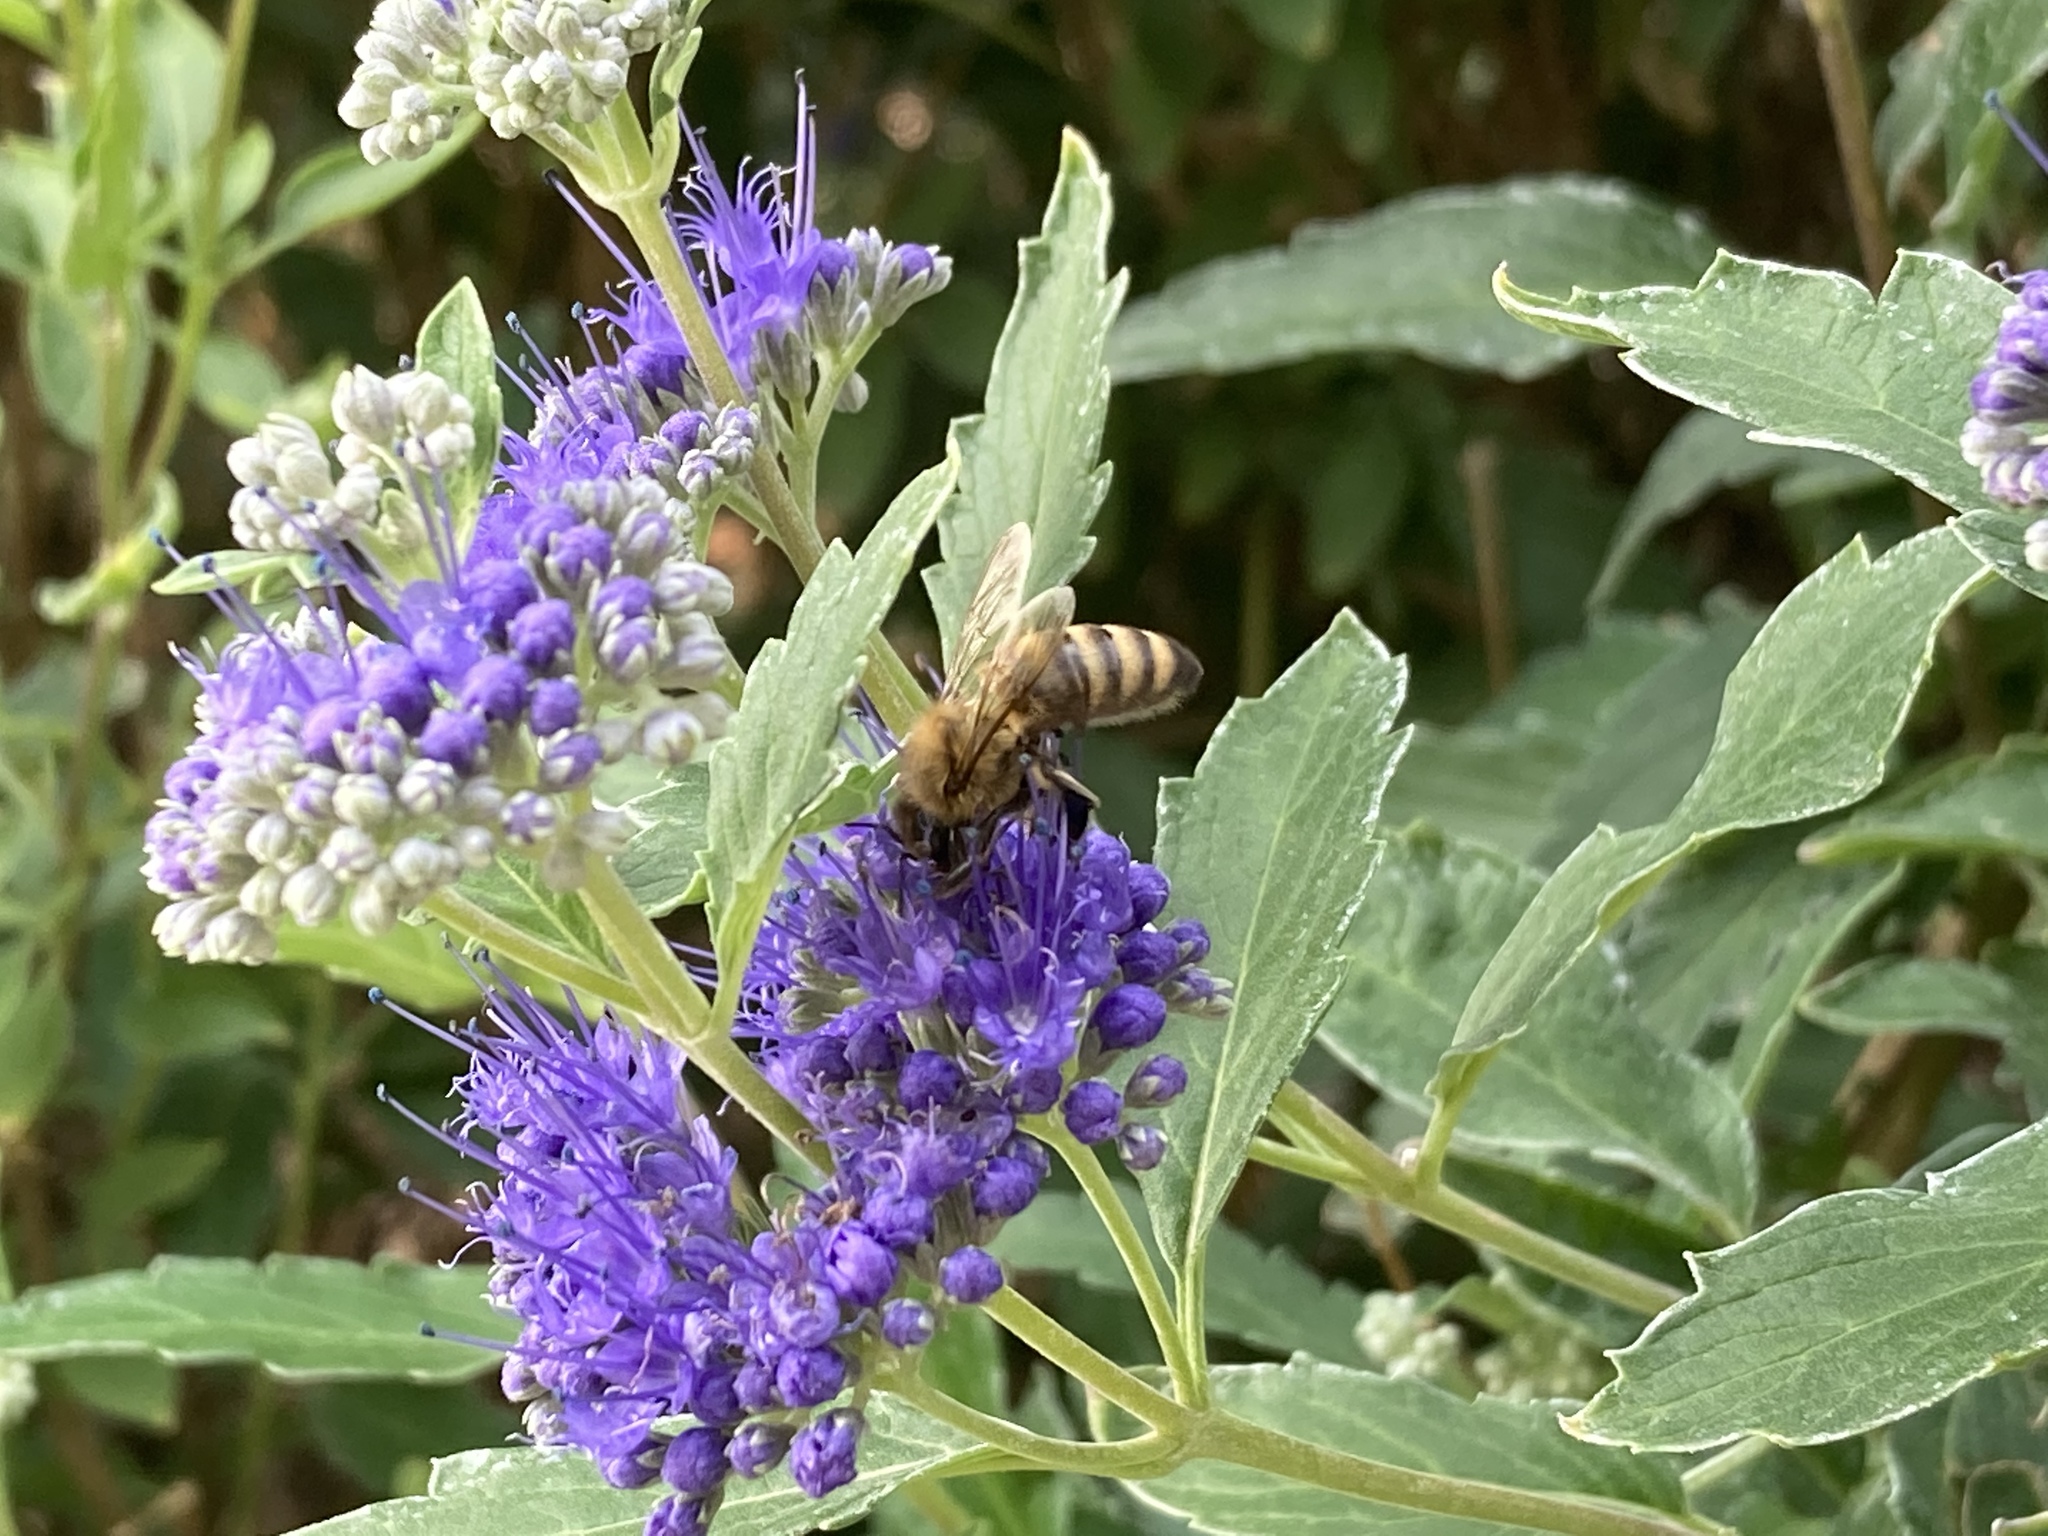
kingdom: Animalia
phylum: Arthropoda
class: Insecta
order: Hymenoptera
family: Apidae
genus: Apis
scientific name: Apis mellifera
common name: Honey bee
